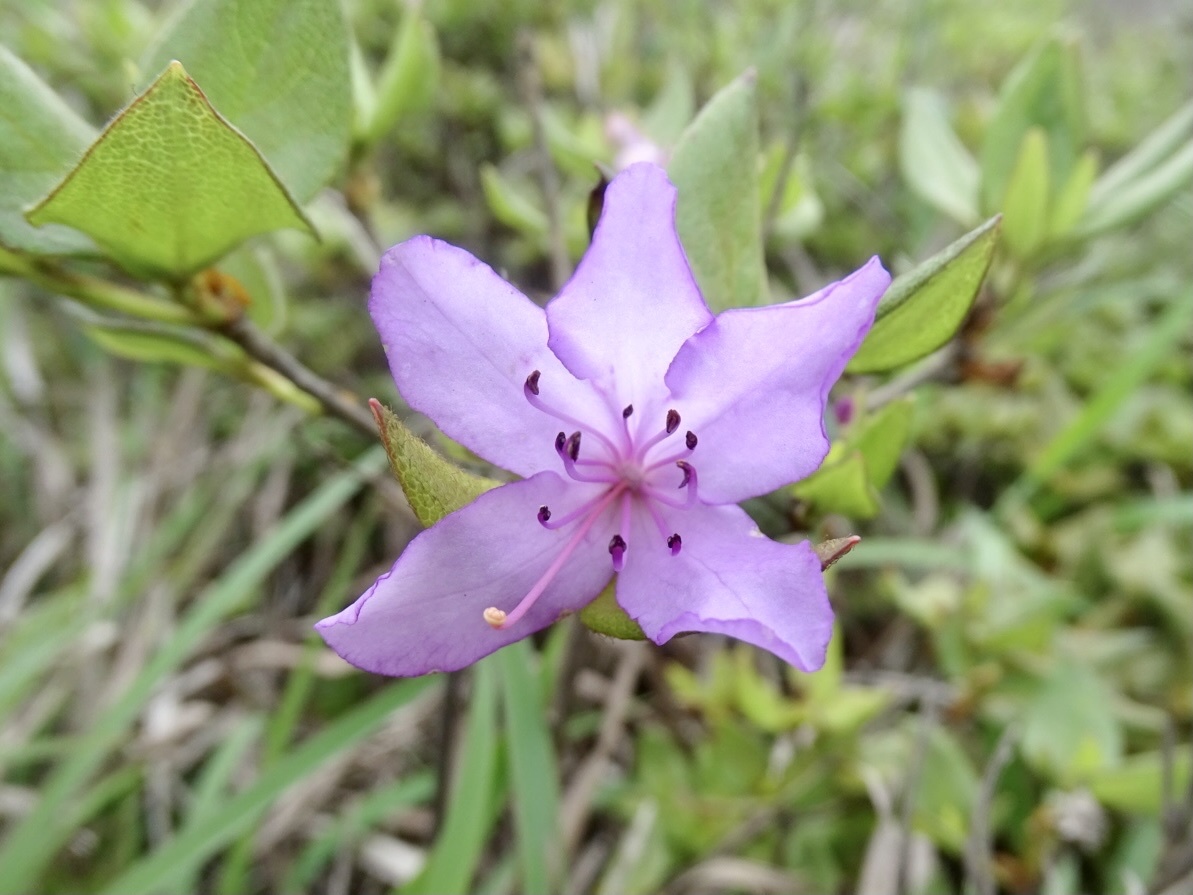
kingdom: Plantae
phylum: Tracheophyta
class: Magnoliopsida
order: Ericales
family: Ericaceae
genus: Rhododendron
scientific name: Rhododendron farrerae
